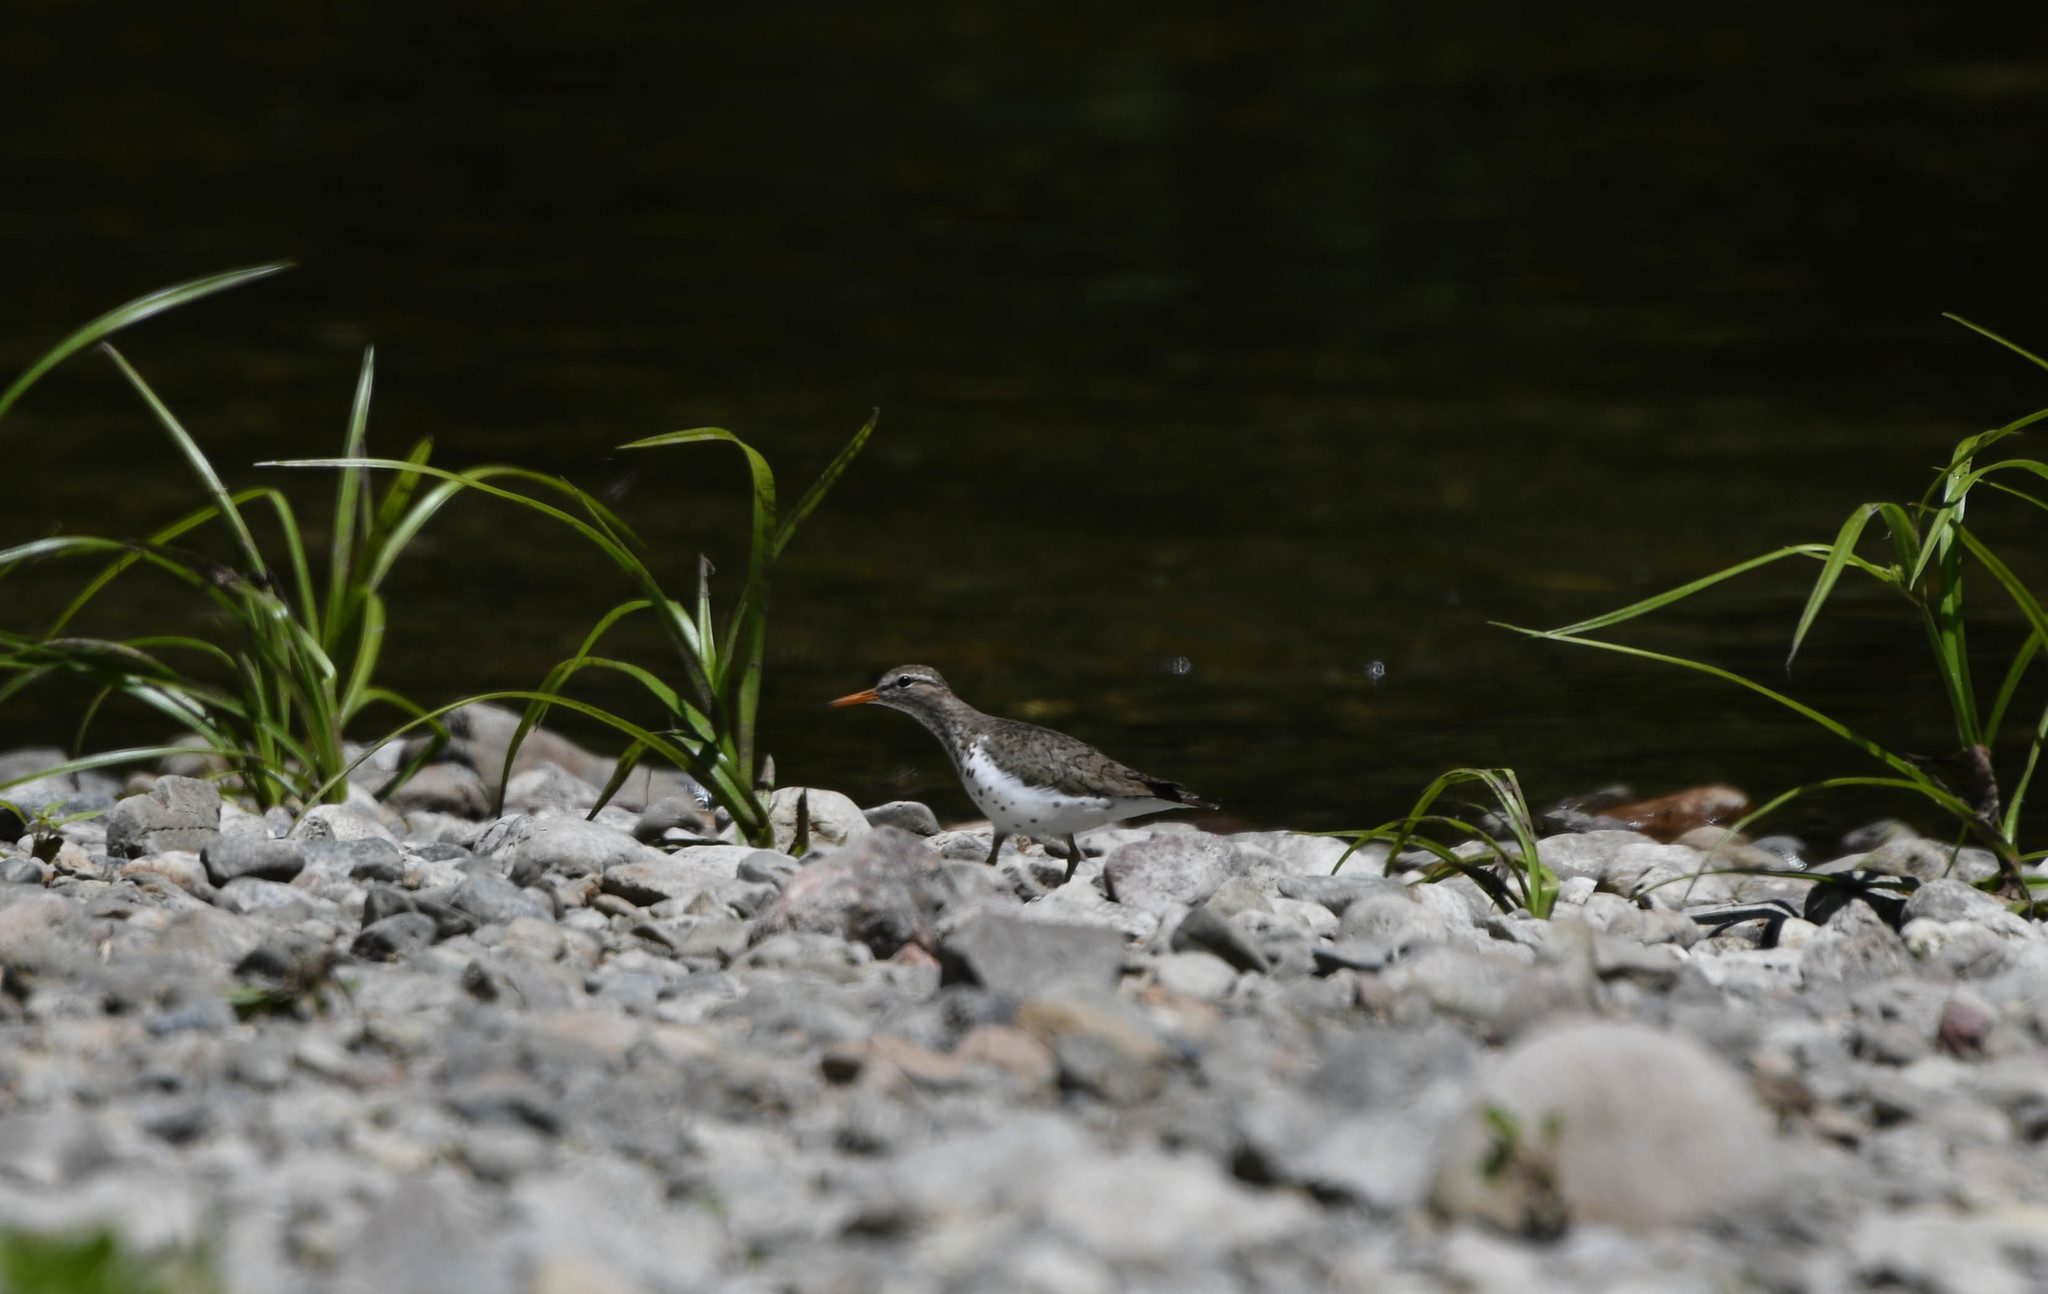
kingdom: Animalia
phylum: Chordata
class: Aves
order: Charadriiformes
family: Scolopacidae
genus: Actitis
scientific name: Actitis macularius
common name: Spotted sandpiper
